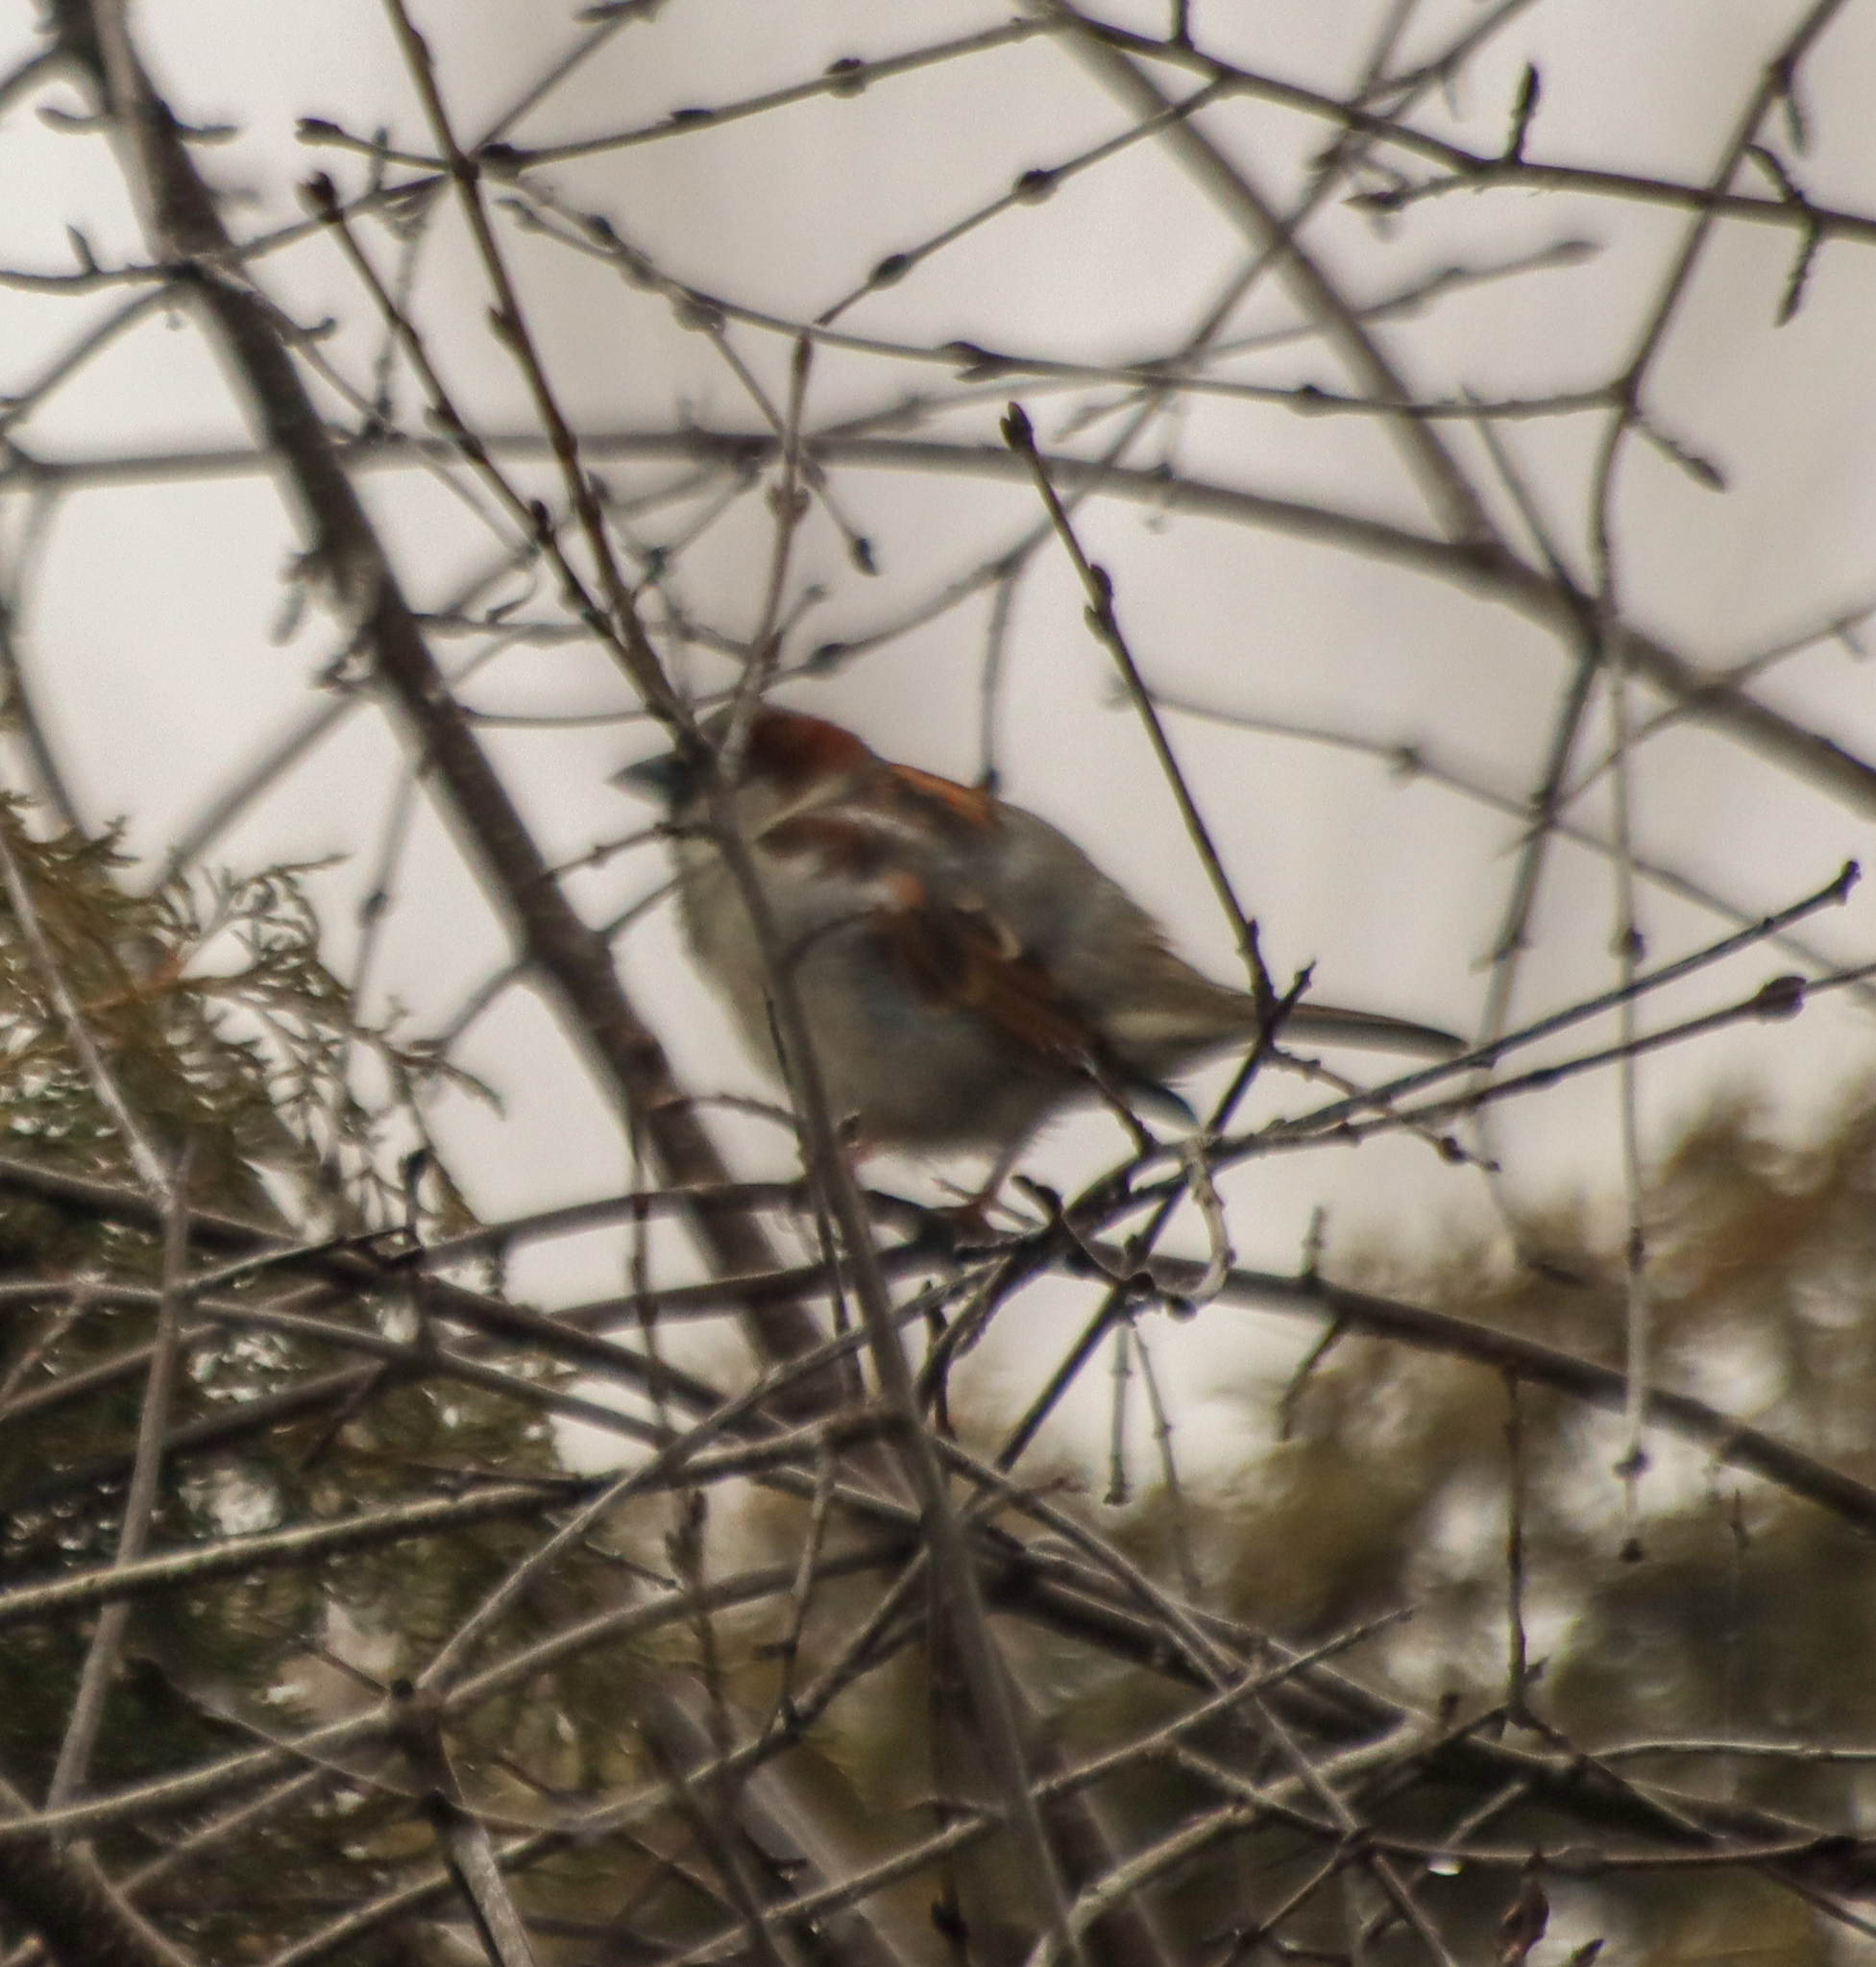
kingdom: Animalia
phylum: Chordata
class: Aves
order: Passeriformes
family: Passeridae
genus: Passer
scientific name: Passer domesticus
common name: House sparrow
